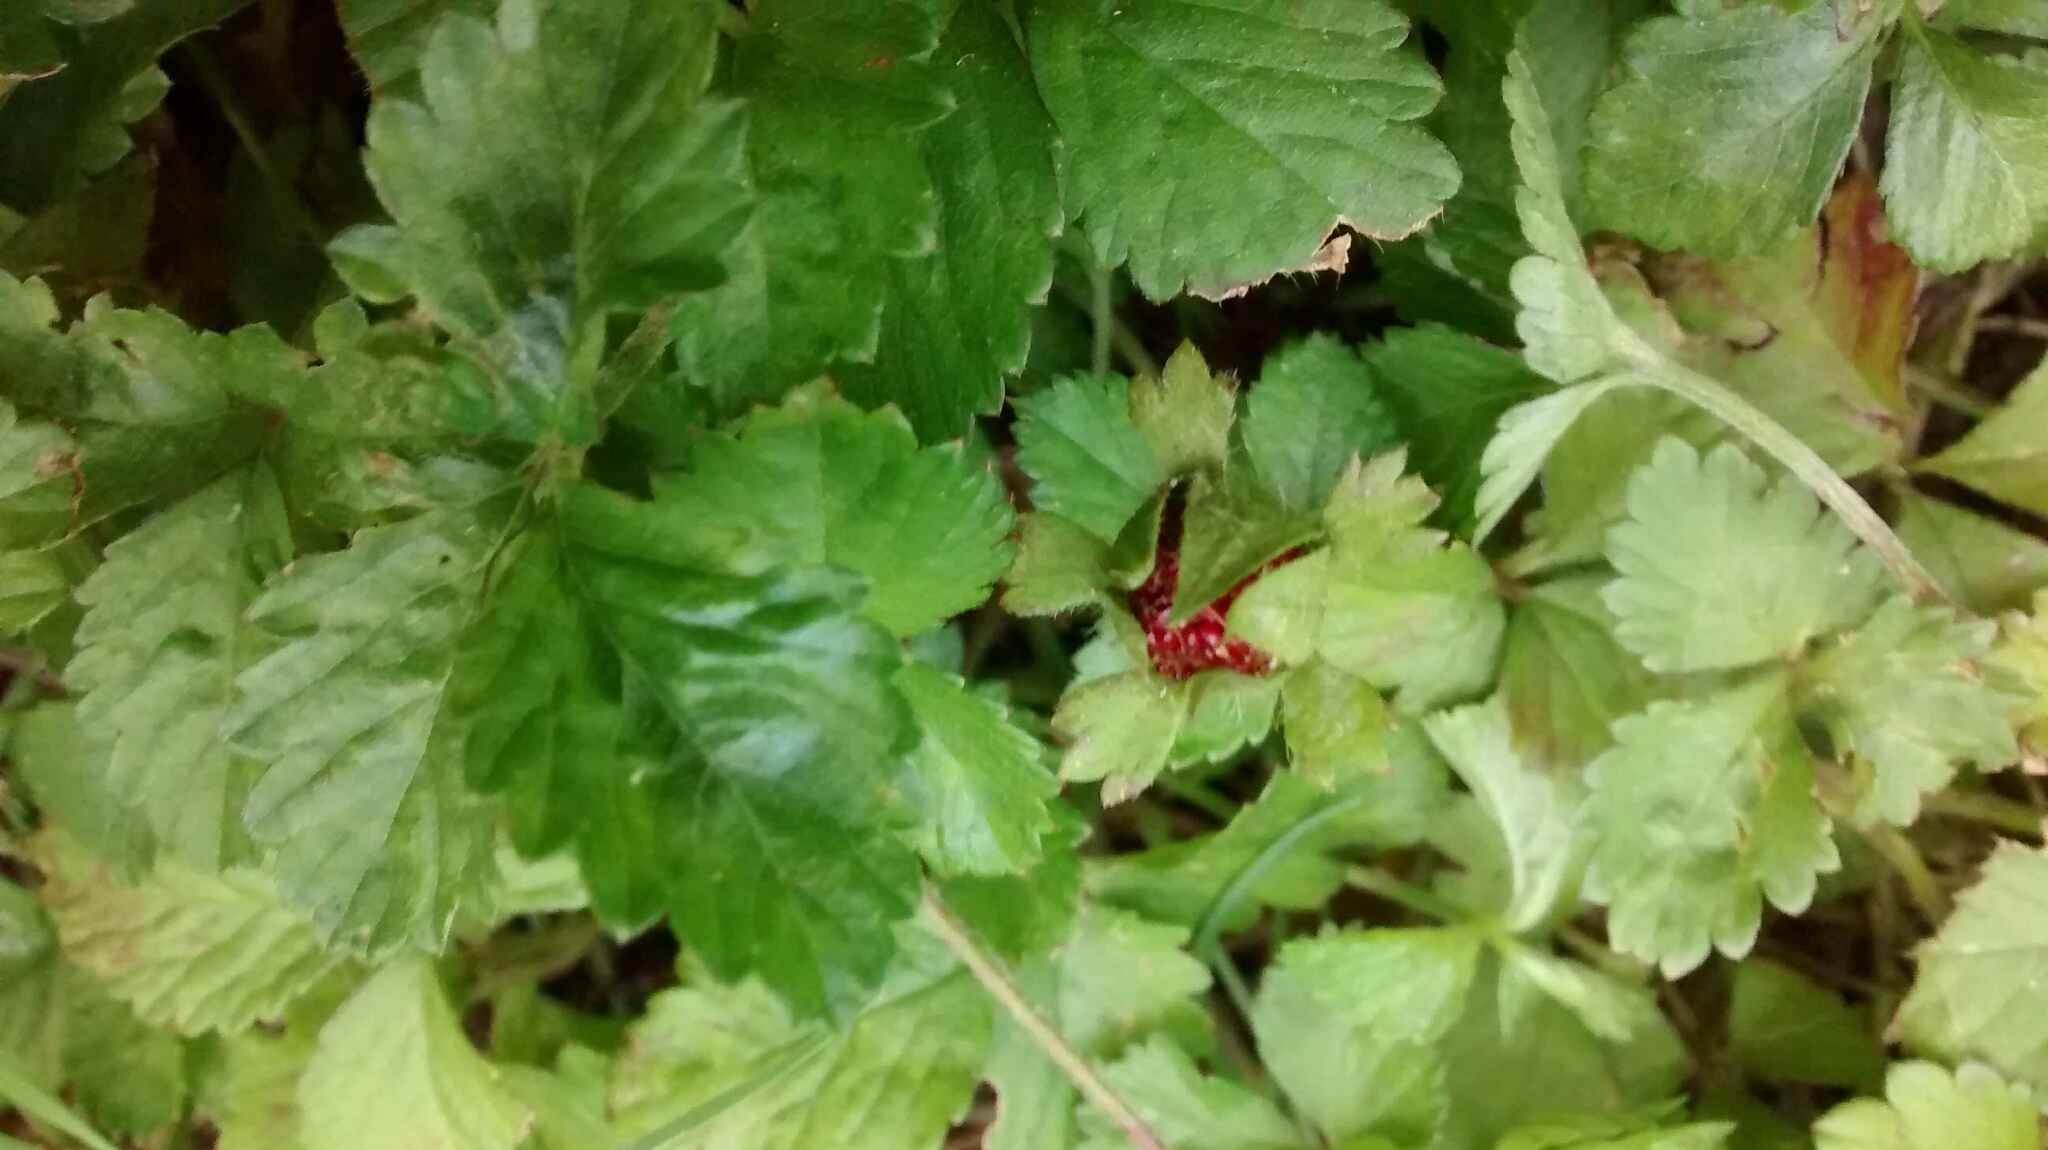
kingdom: Plantae
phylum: Tracheophyta
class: Magnoliopsida
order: Rosales
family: Rosaceae
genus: Potentilla
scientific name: Potentilla indica
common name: Yellow-flowered strawberry
